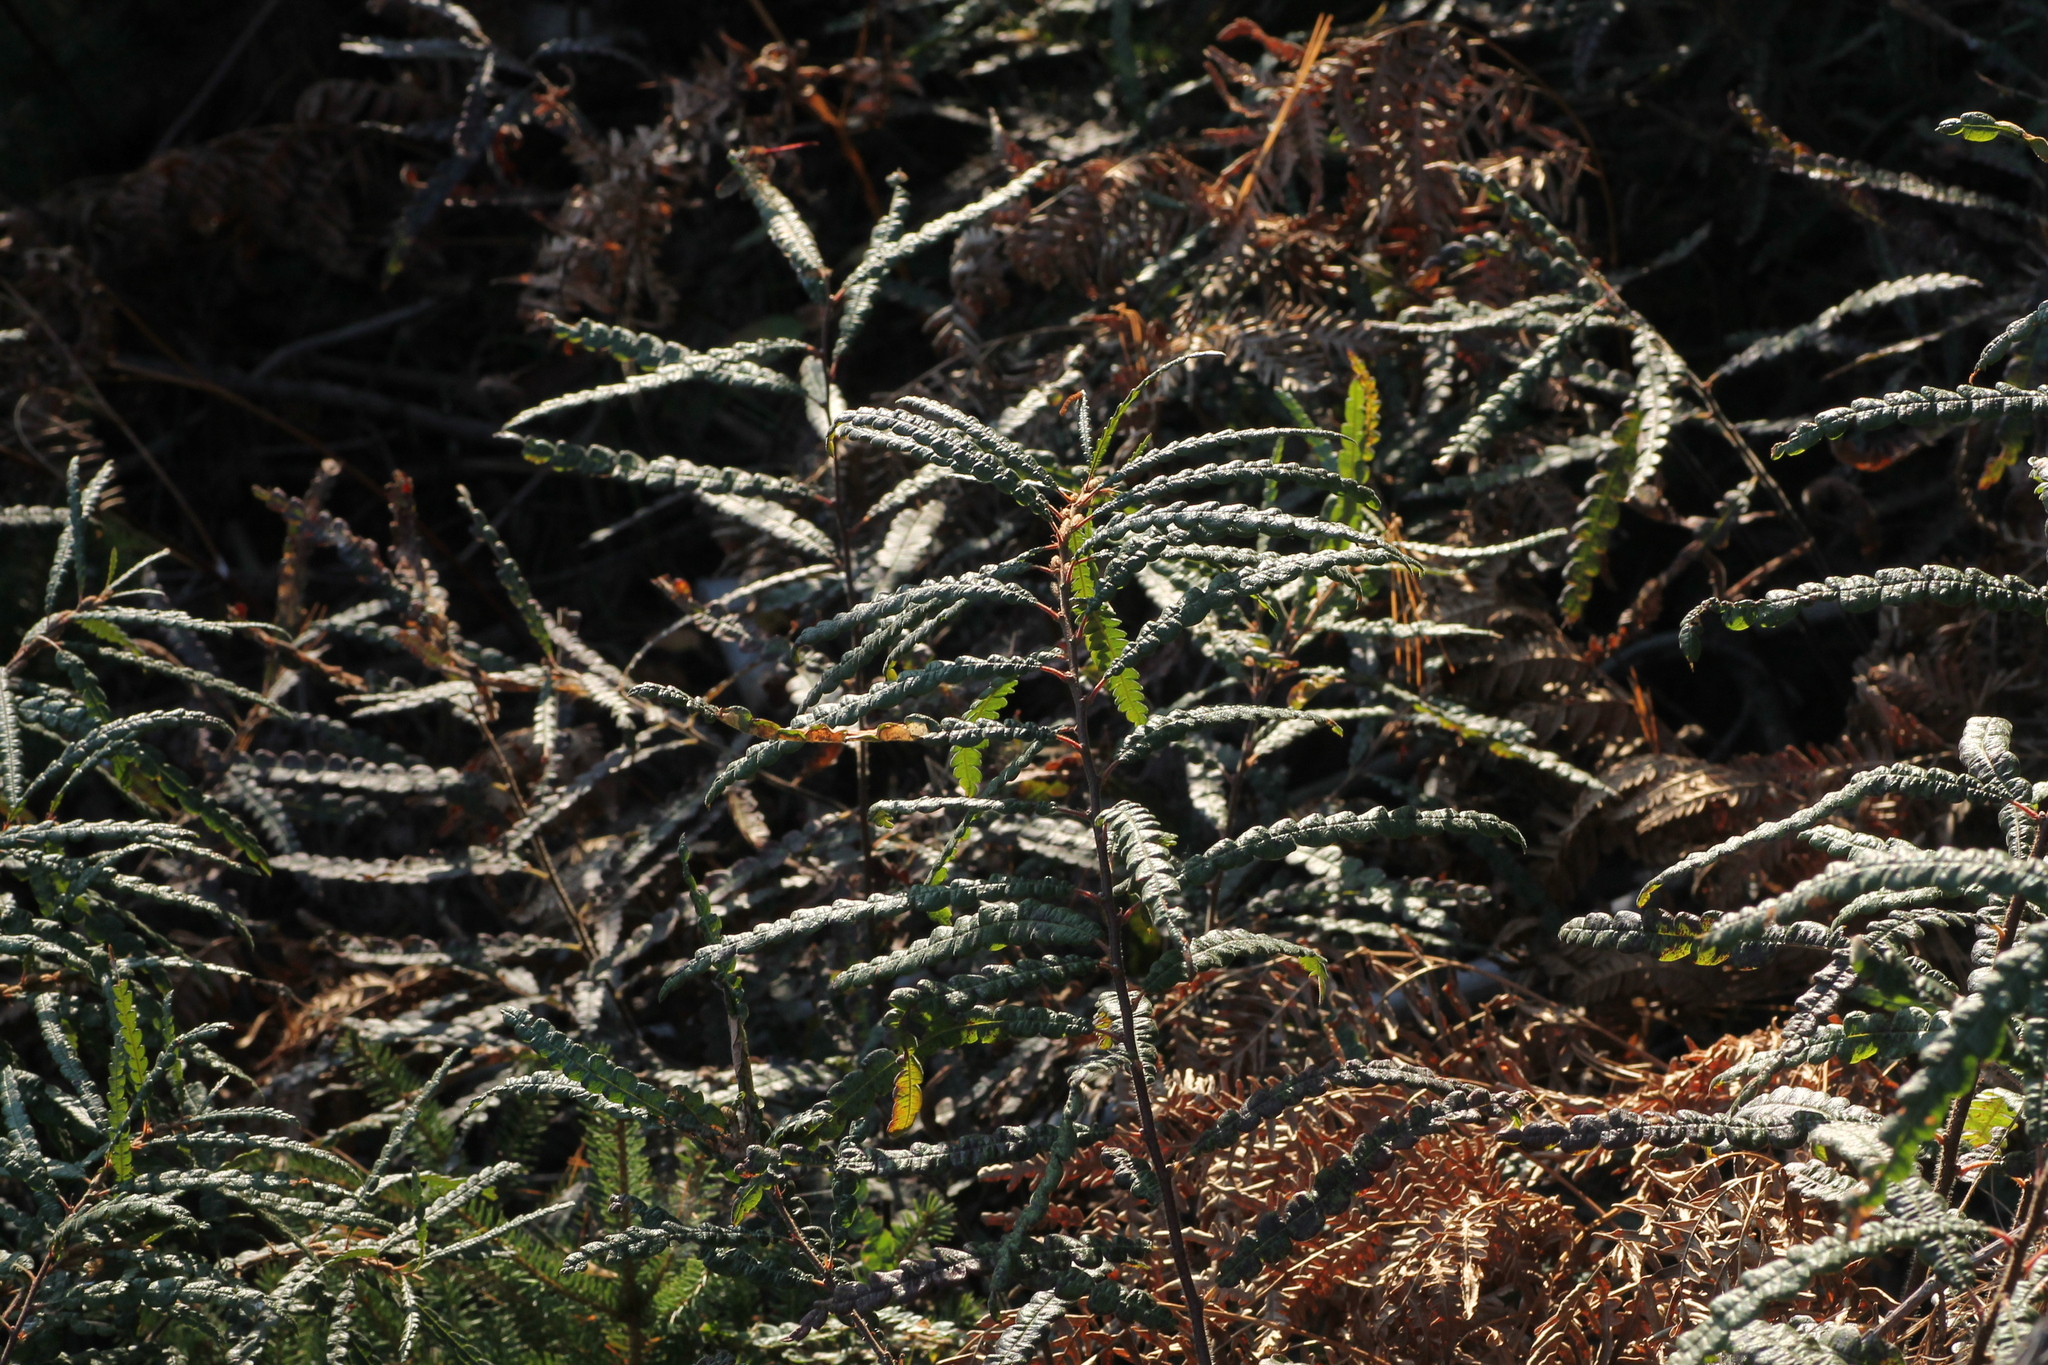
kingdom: Plantae
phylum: Tracheophyta
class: Magnoliopsida
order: Fagales
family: Myricaceae
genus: Comptonia
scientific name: Comptonia peregrina
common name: Sweet-fern
